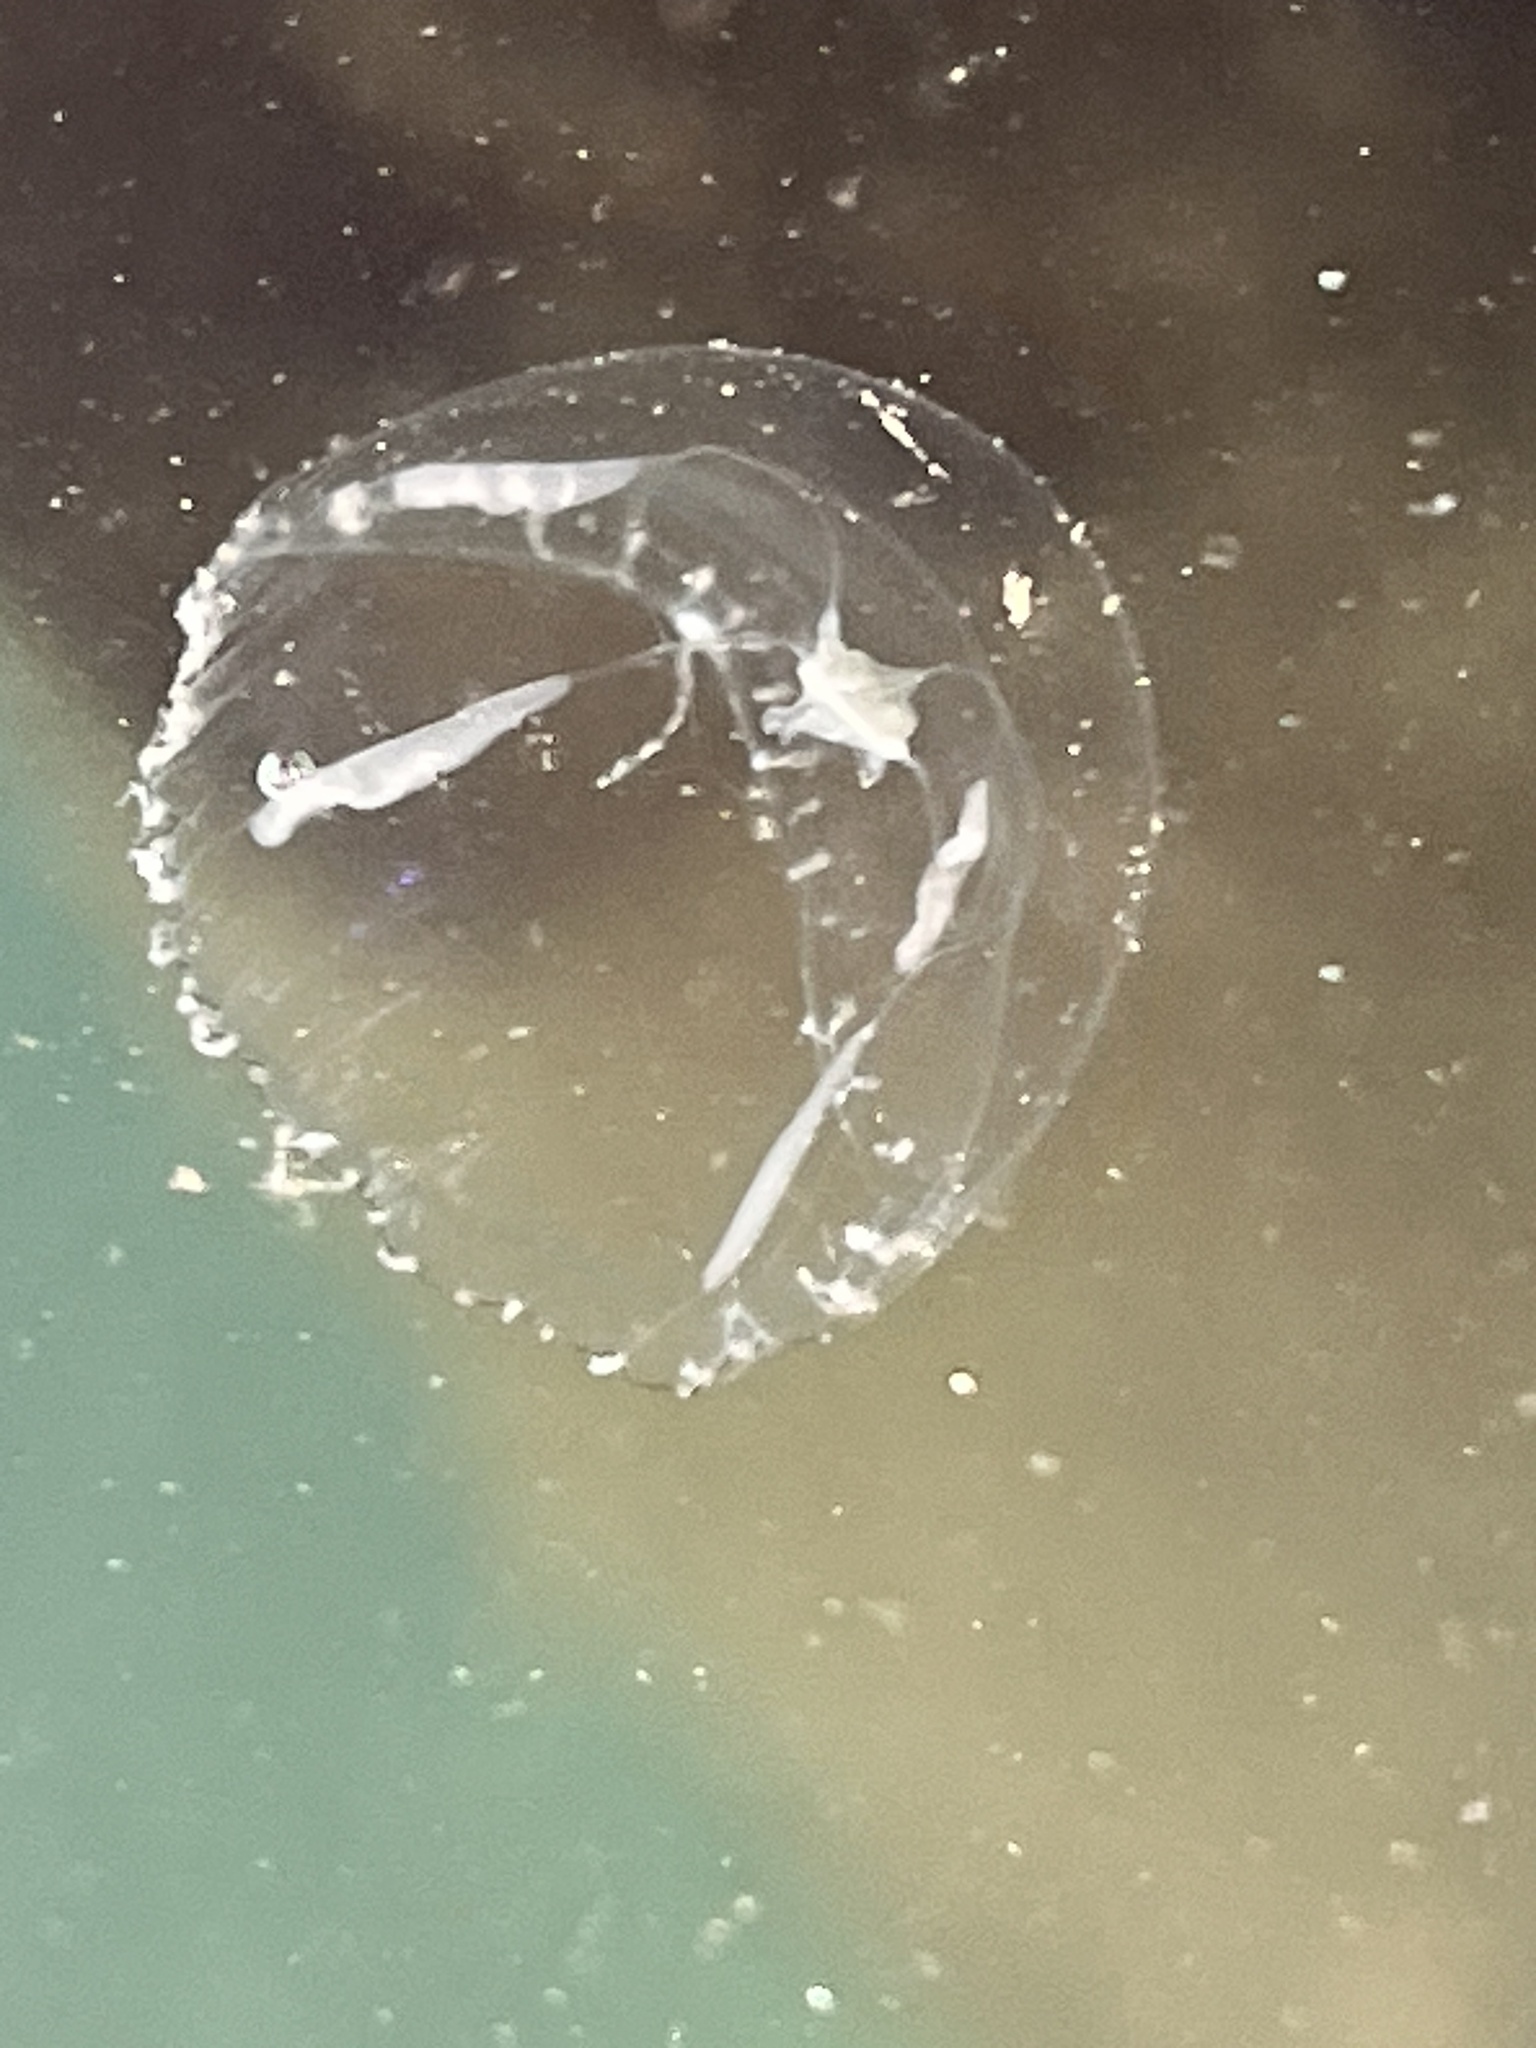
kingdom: Animalia
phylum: Cnidaria
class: Hydrozoa
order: Leptothecata
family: Campanulariidae
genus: Clytia
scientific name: Clytia gregaria
